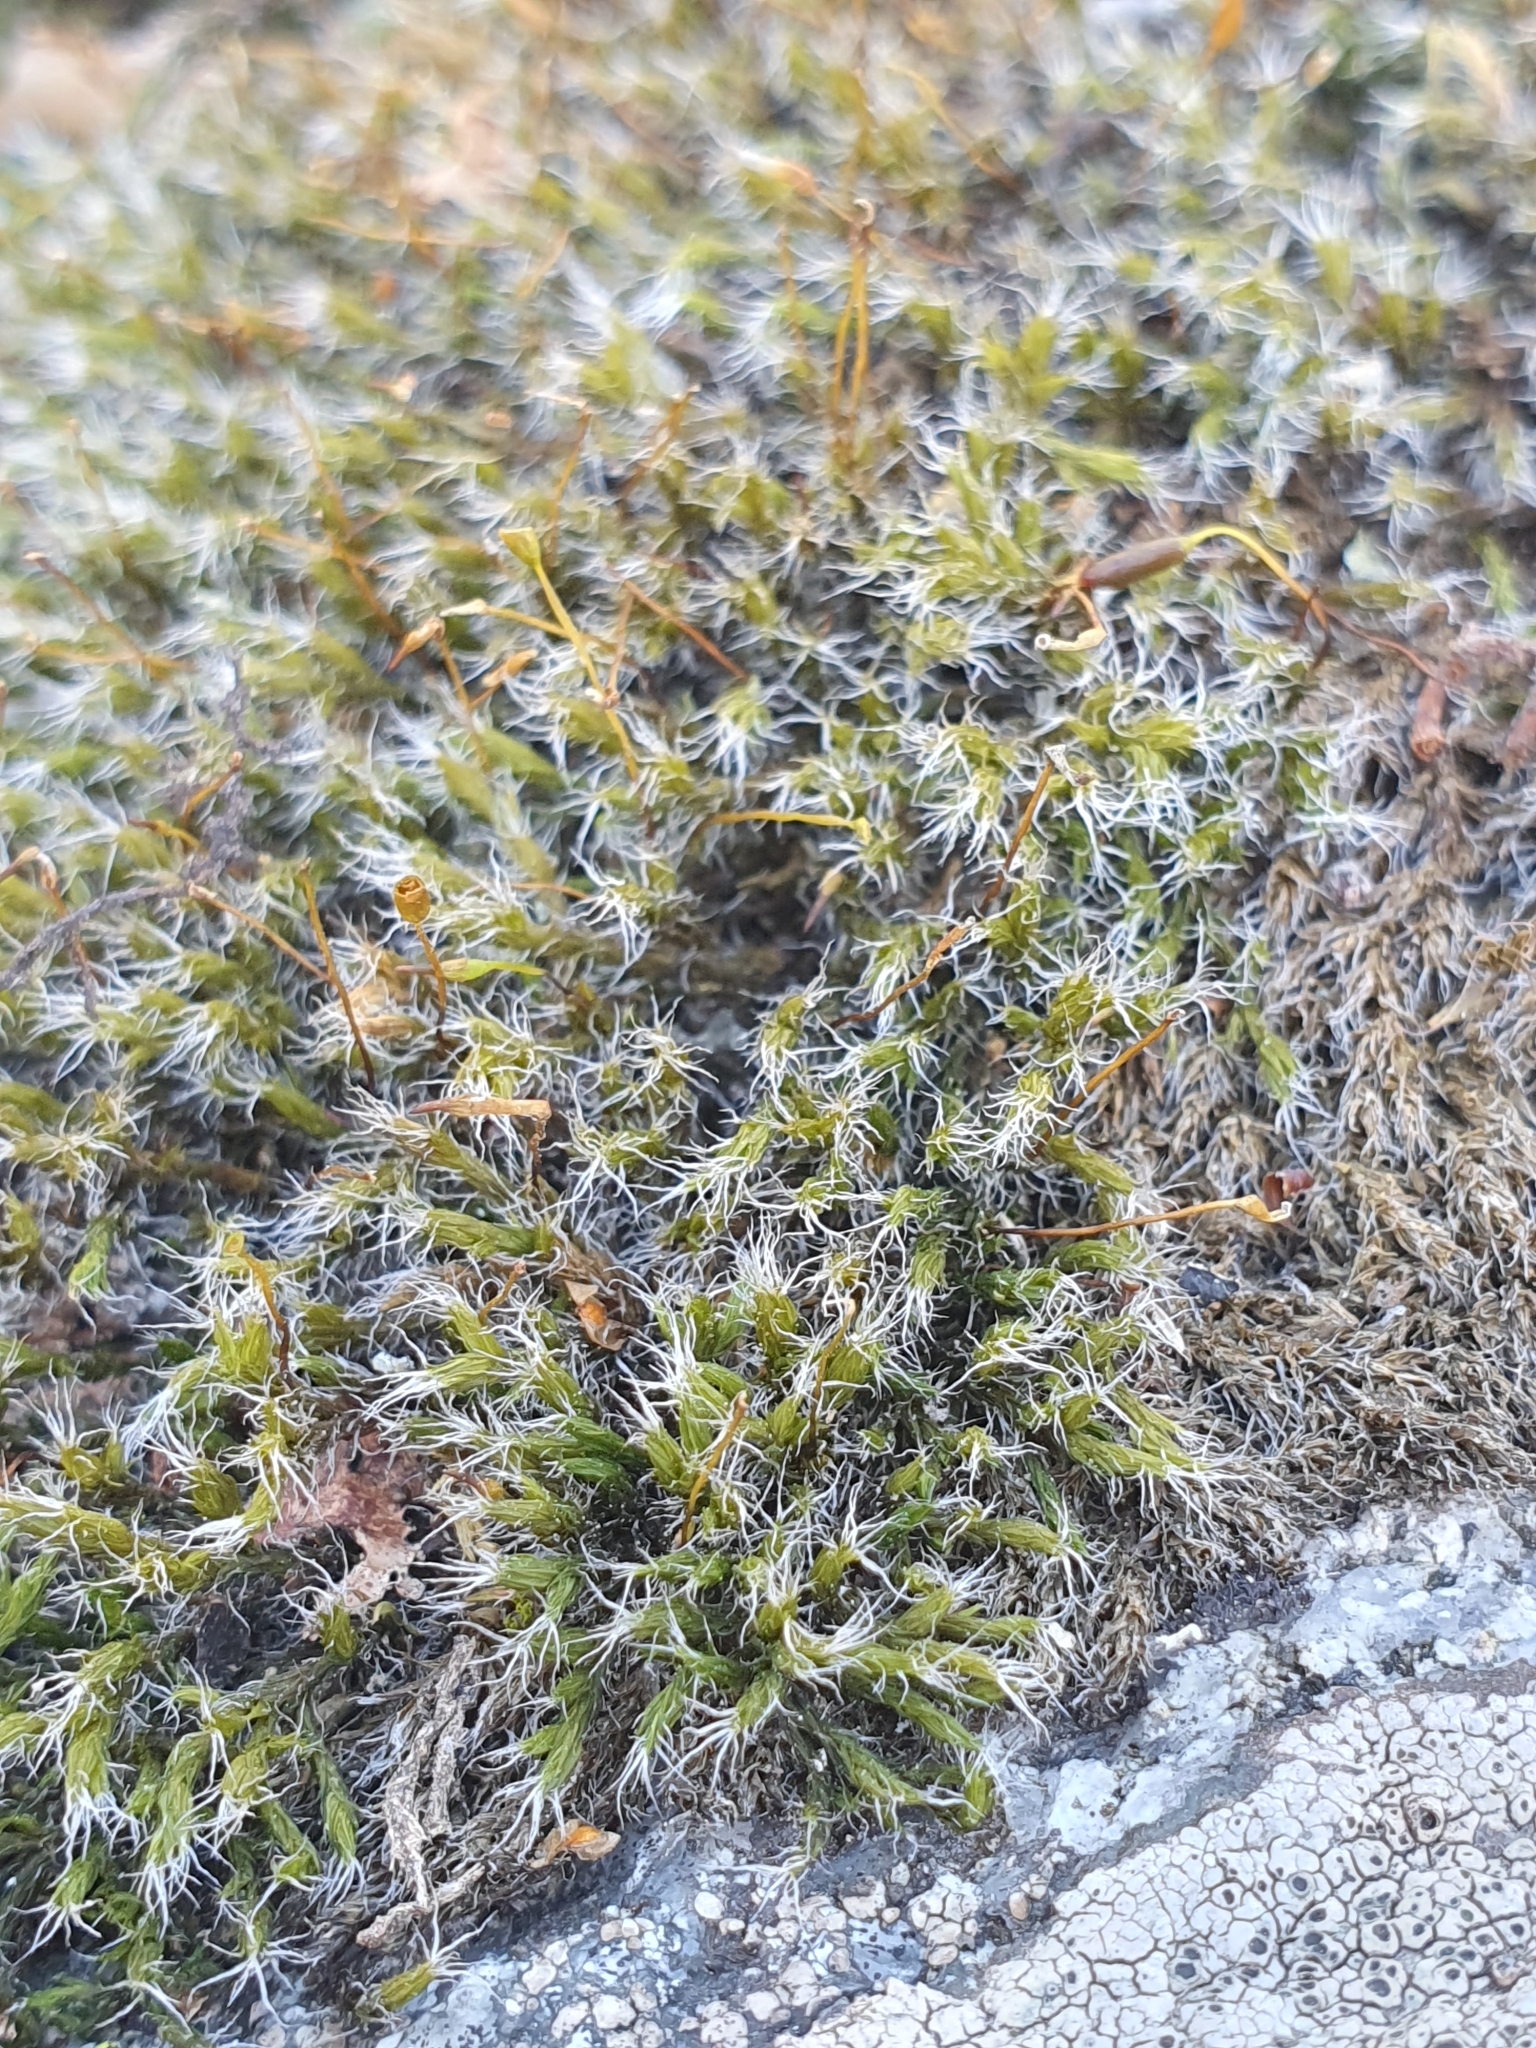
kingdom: Plantae
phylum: Bryophyta
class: Bryopsida
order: Grimmiales
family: Grimmiaceae
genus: Bucklandiella
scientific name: Bucklandiella heterosticha
